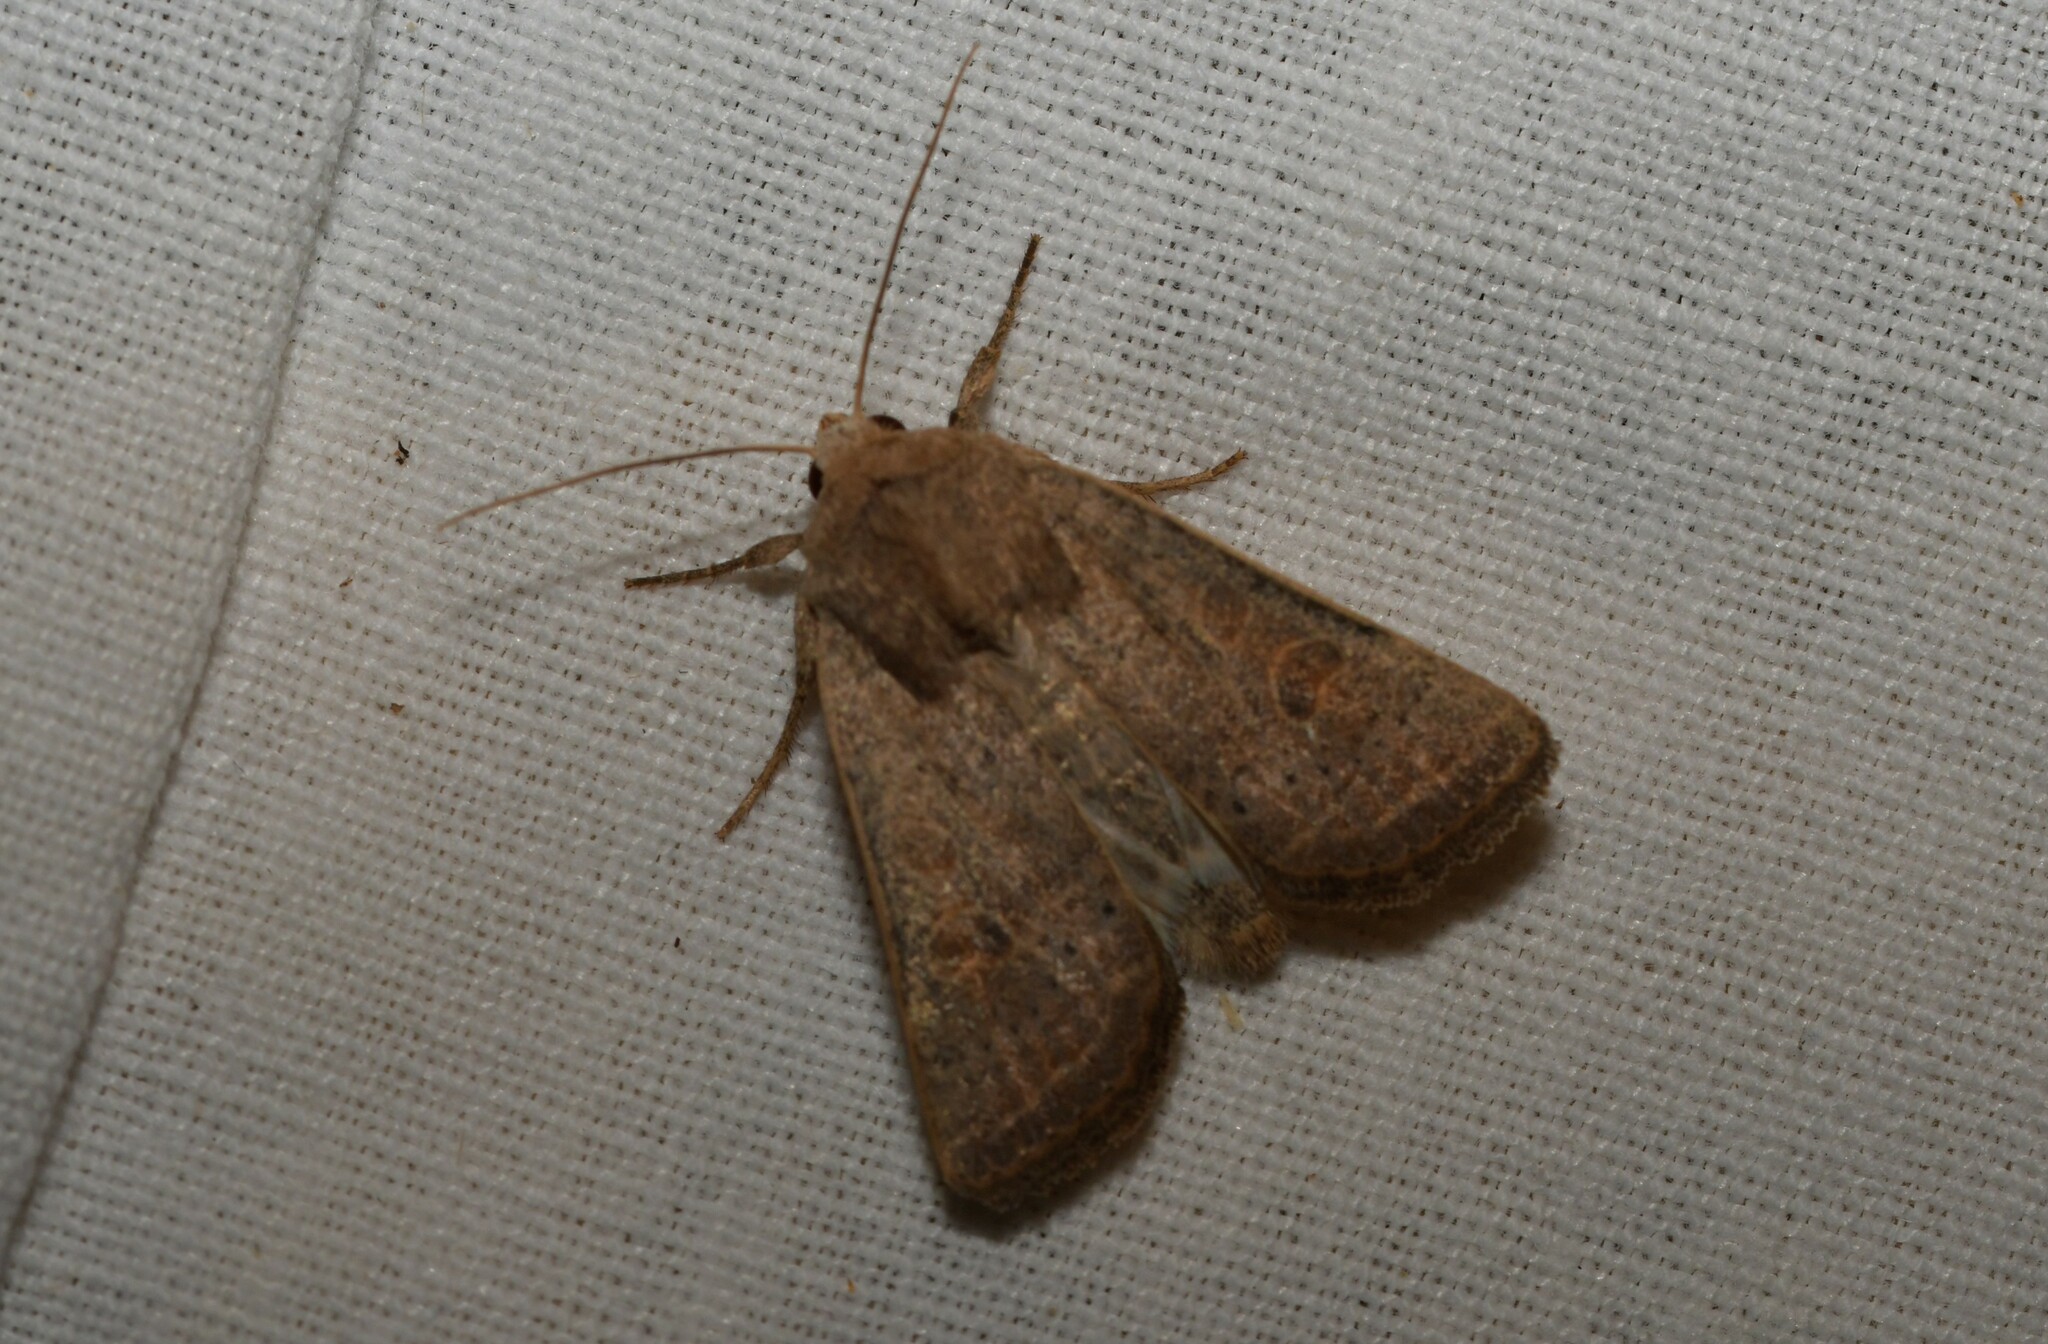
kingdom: Animalia
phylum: Arthropoda
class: Insecta
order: Lepidoptera
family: Noctuidae
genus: Hoplodrina
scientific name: Hoplodrina ambigua
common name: Vine's rustic
